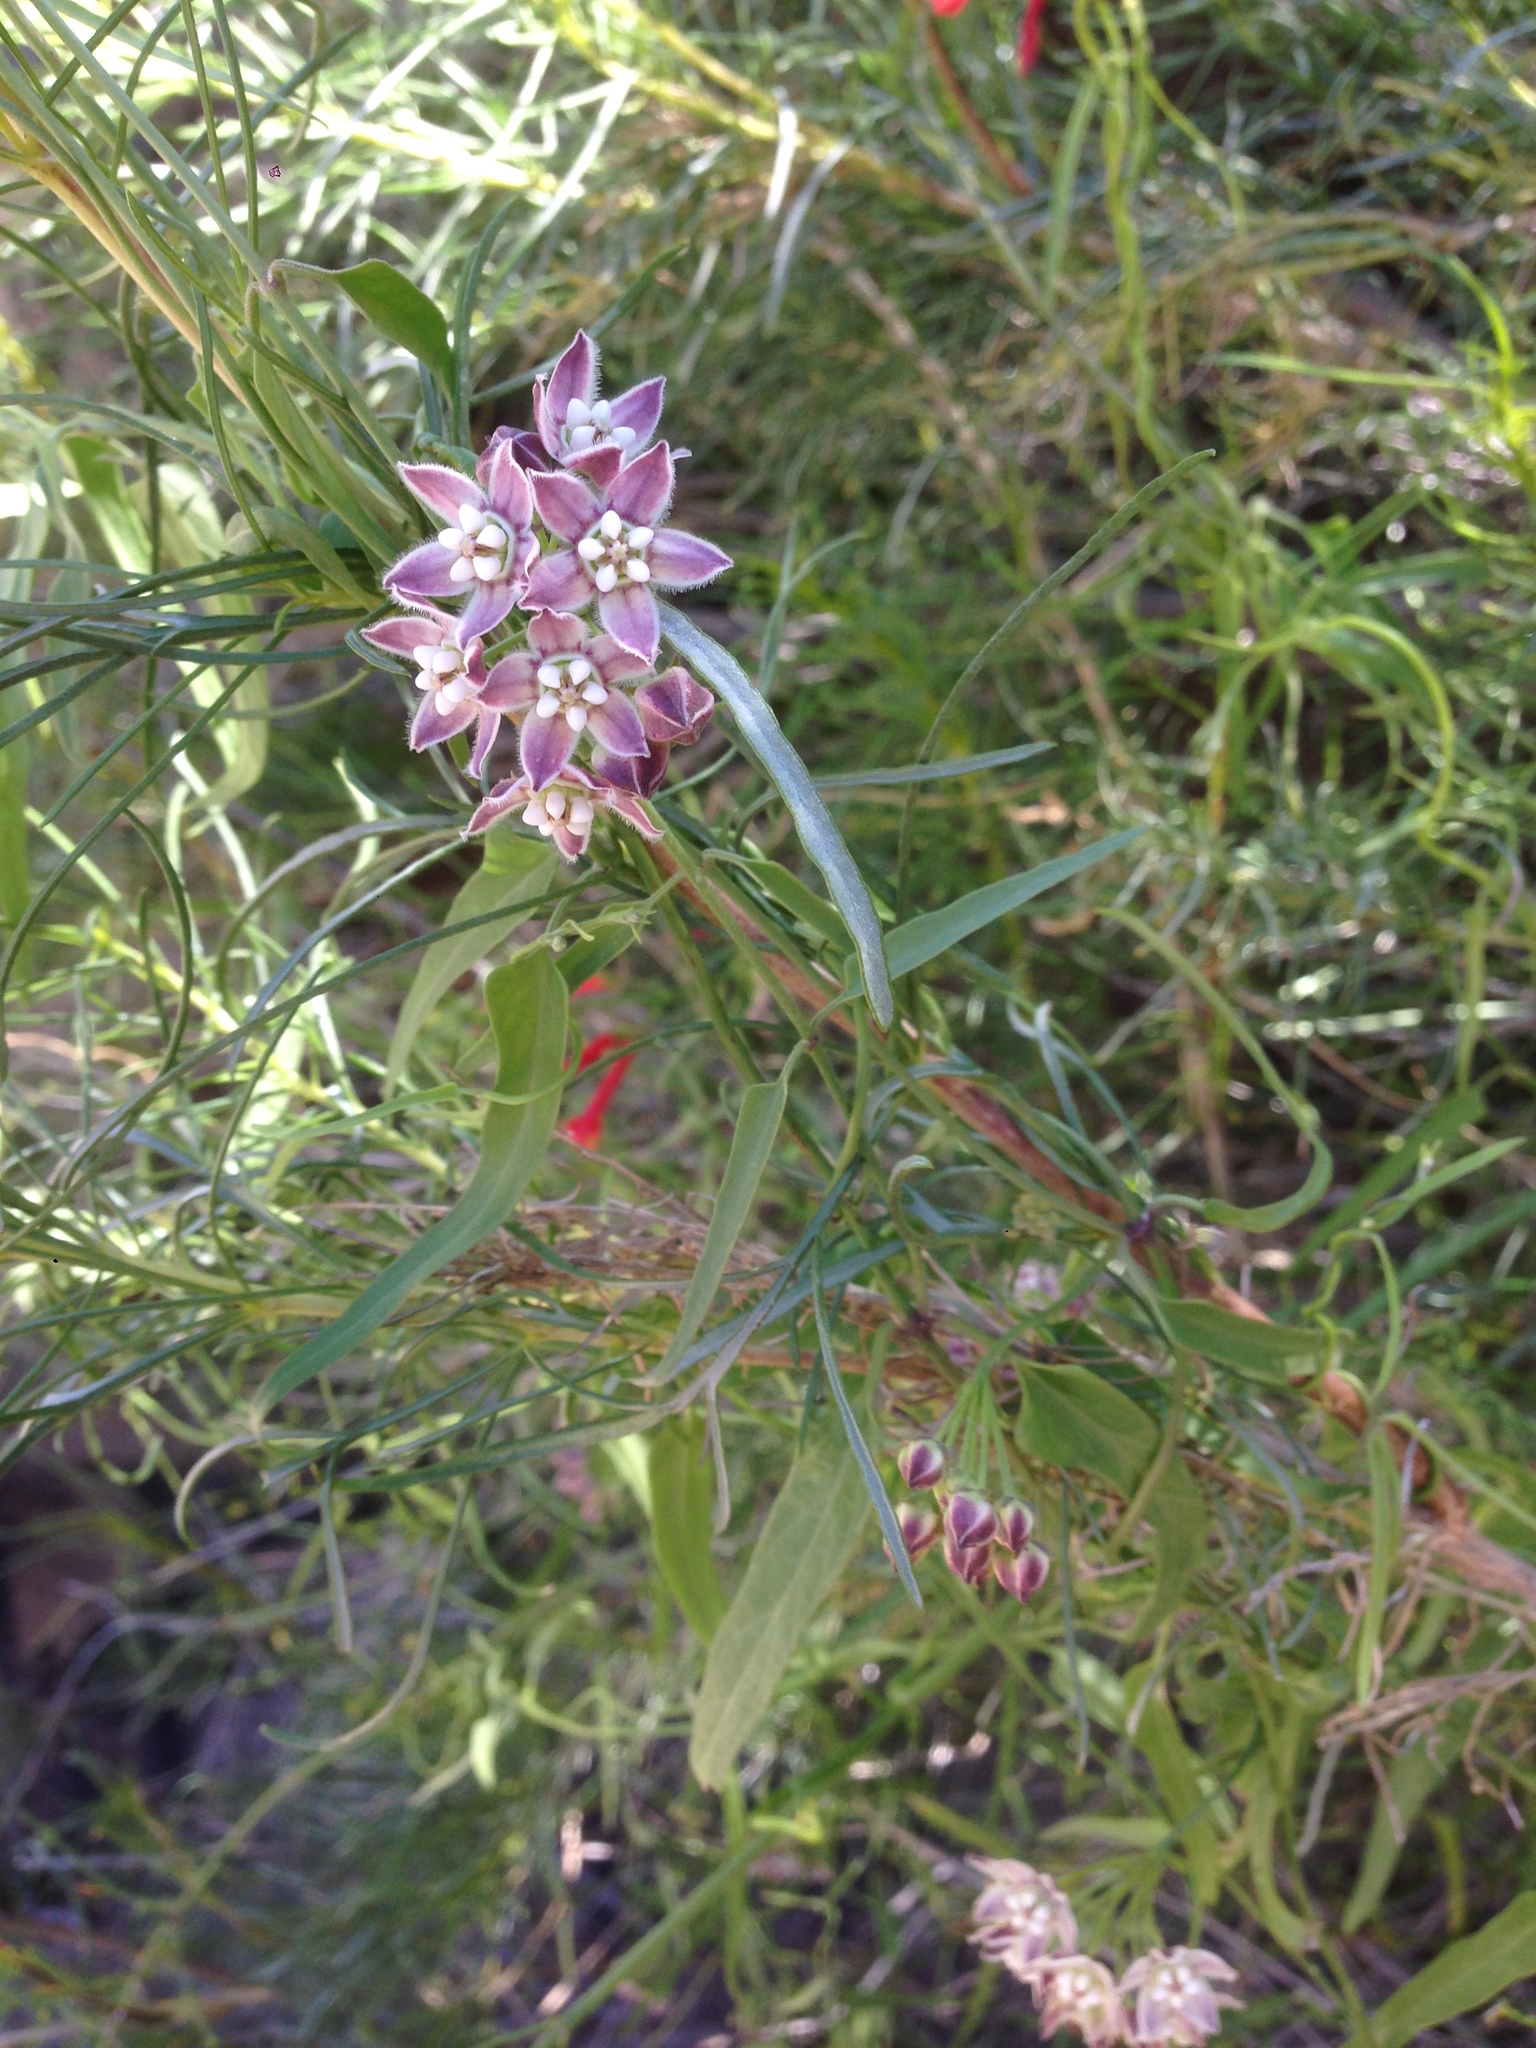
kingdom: Plantae
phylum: Tracheophyta
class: Magnoliopsida
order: Gentianales
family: Apocynaceae
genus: Funastrum
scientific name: Funastrum heterophyllum
